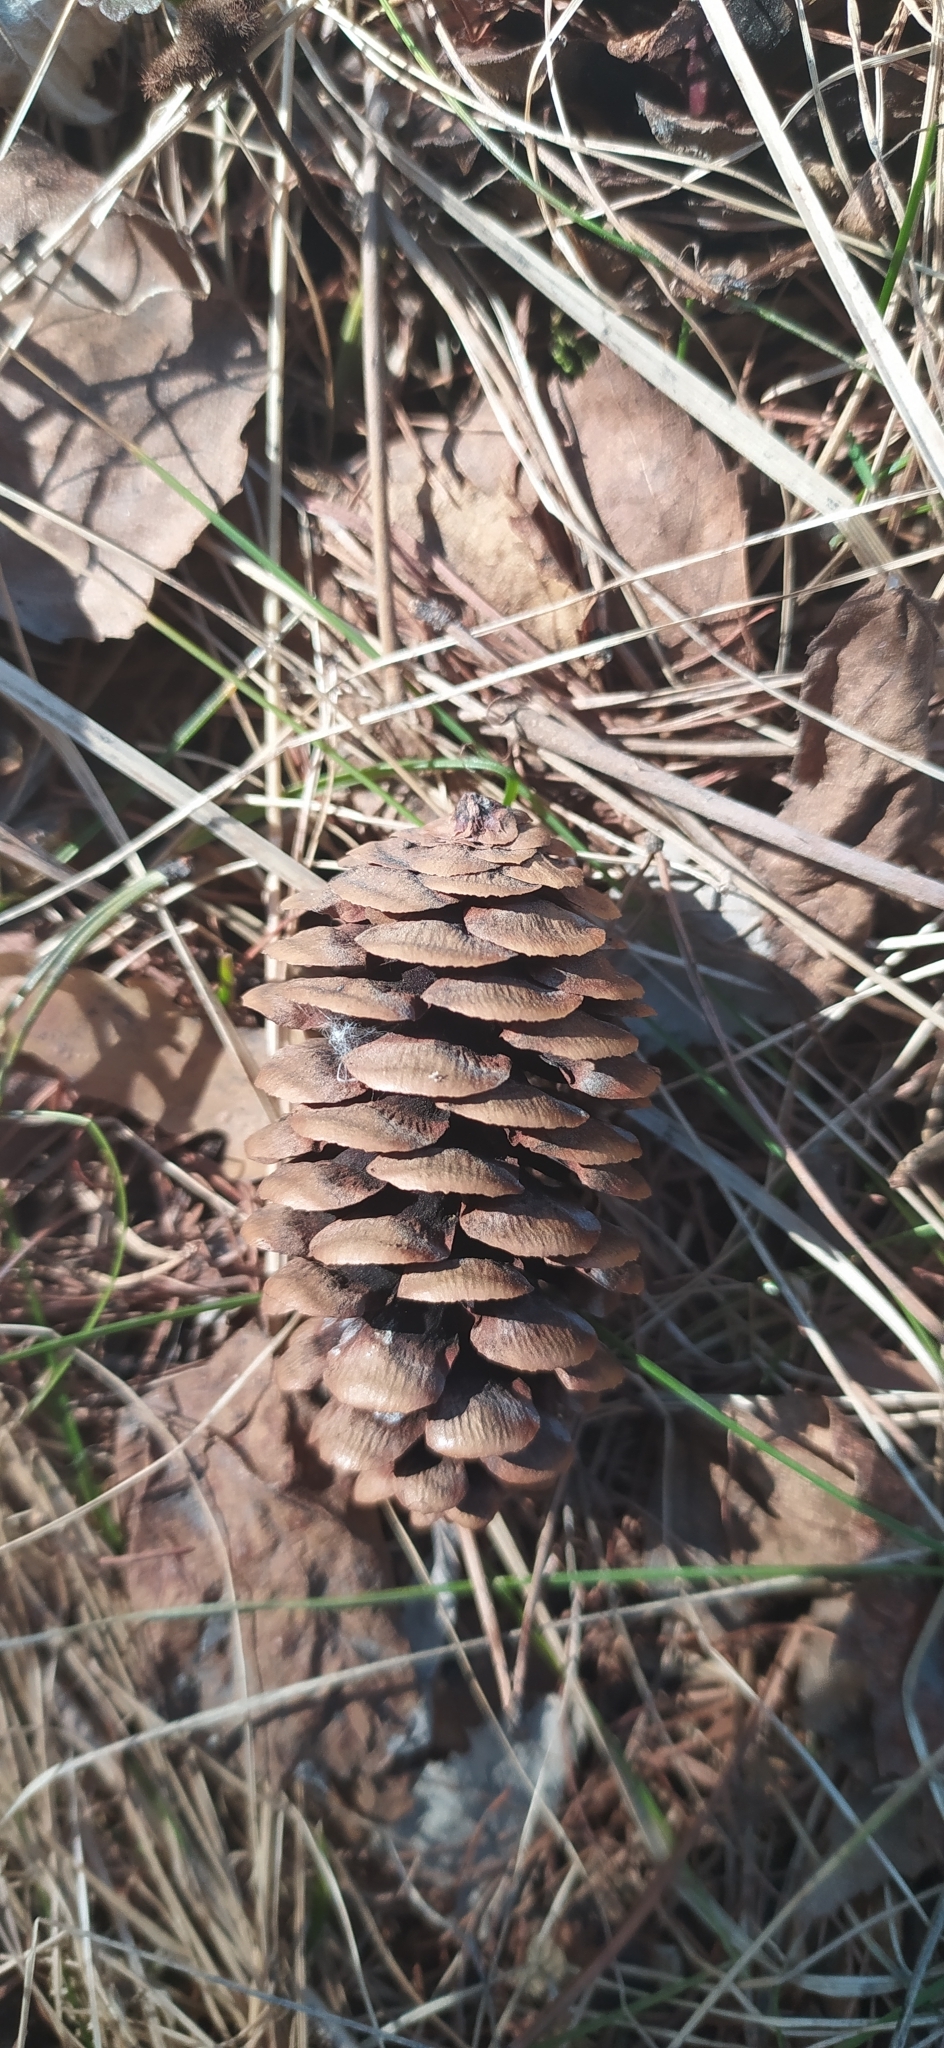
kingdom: Plantae
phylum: Tracheophyta
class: Pinopsida
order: Pinales
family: Pinaceae
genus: Picea
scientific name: Picea obovata
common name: Siberian spruce
